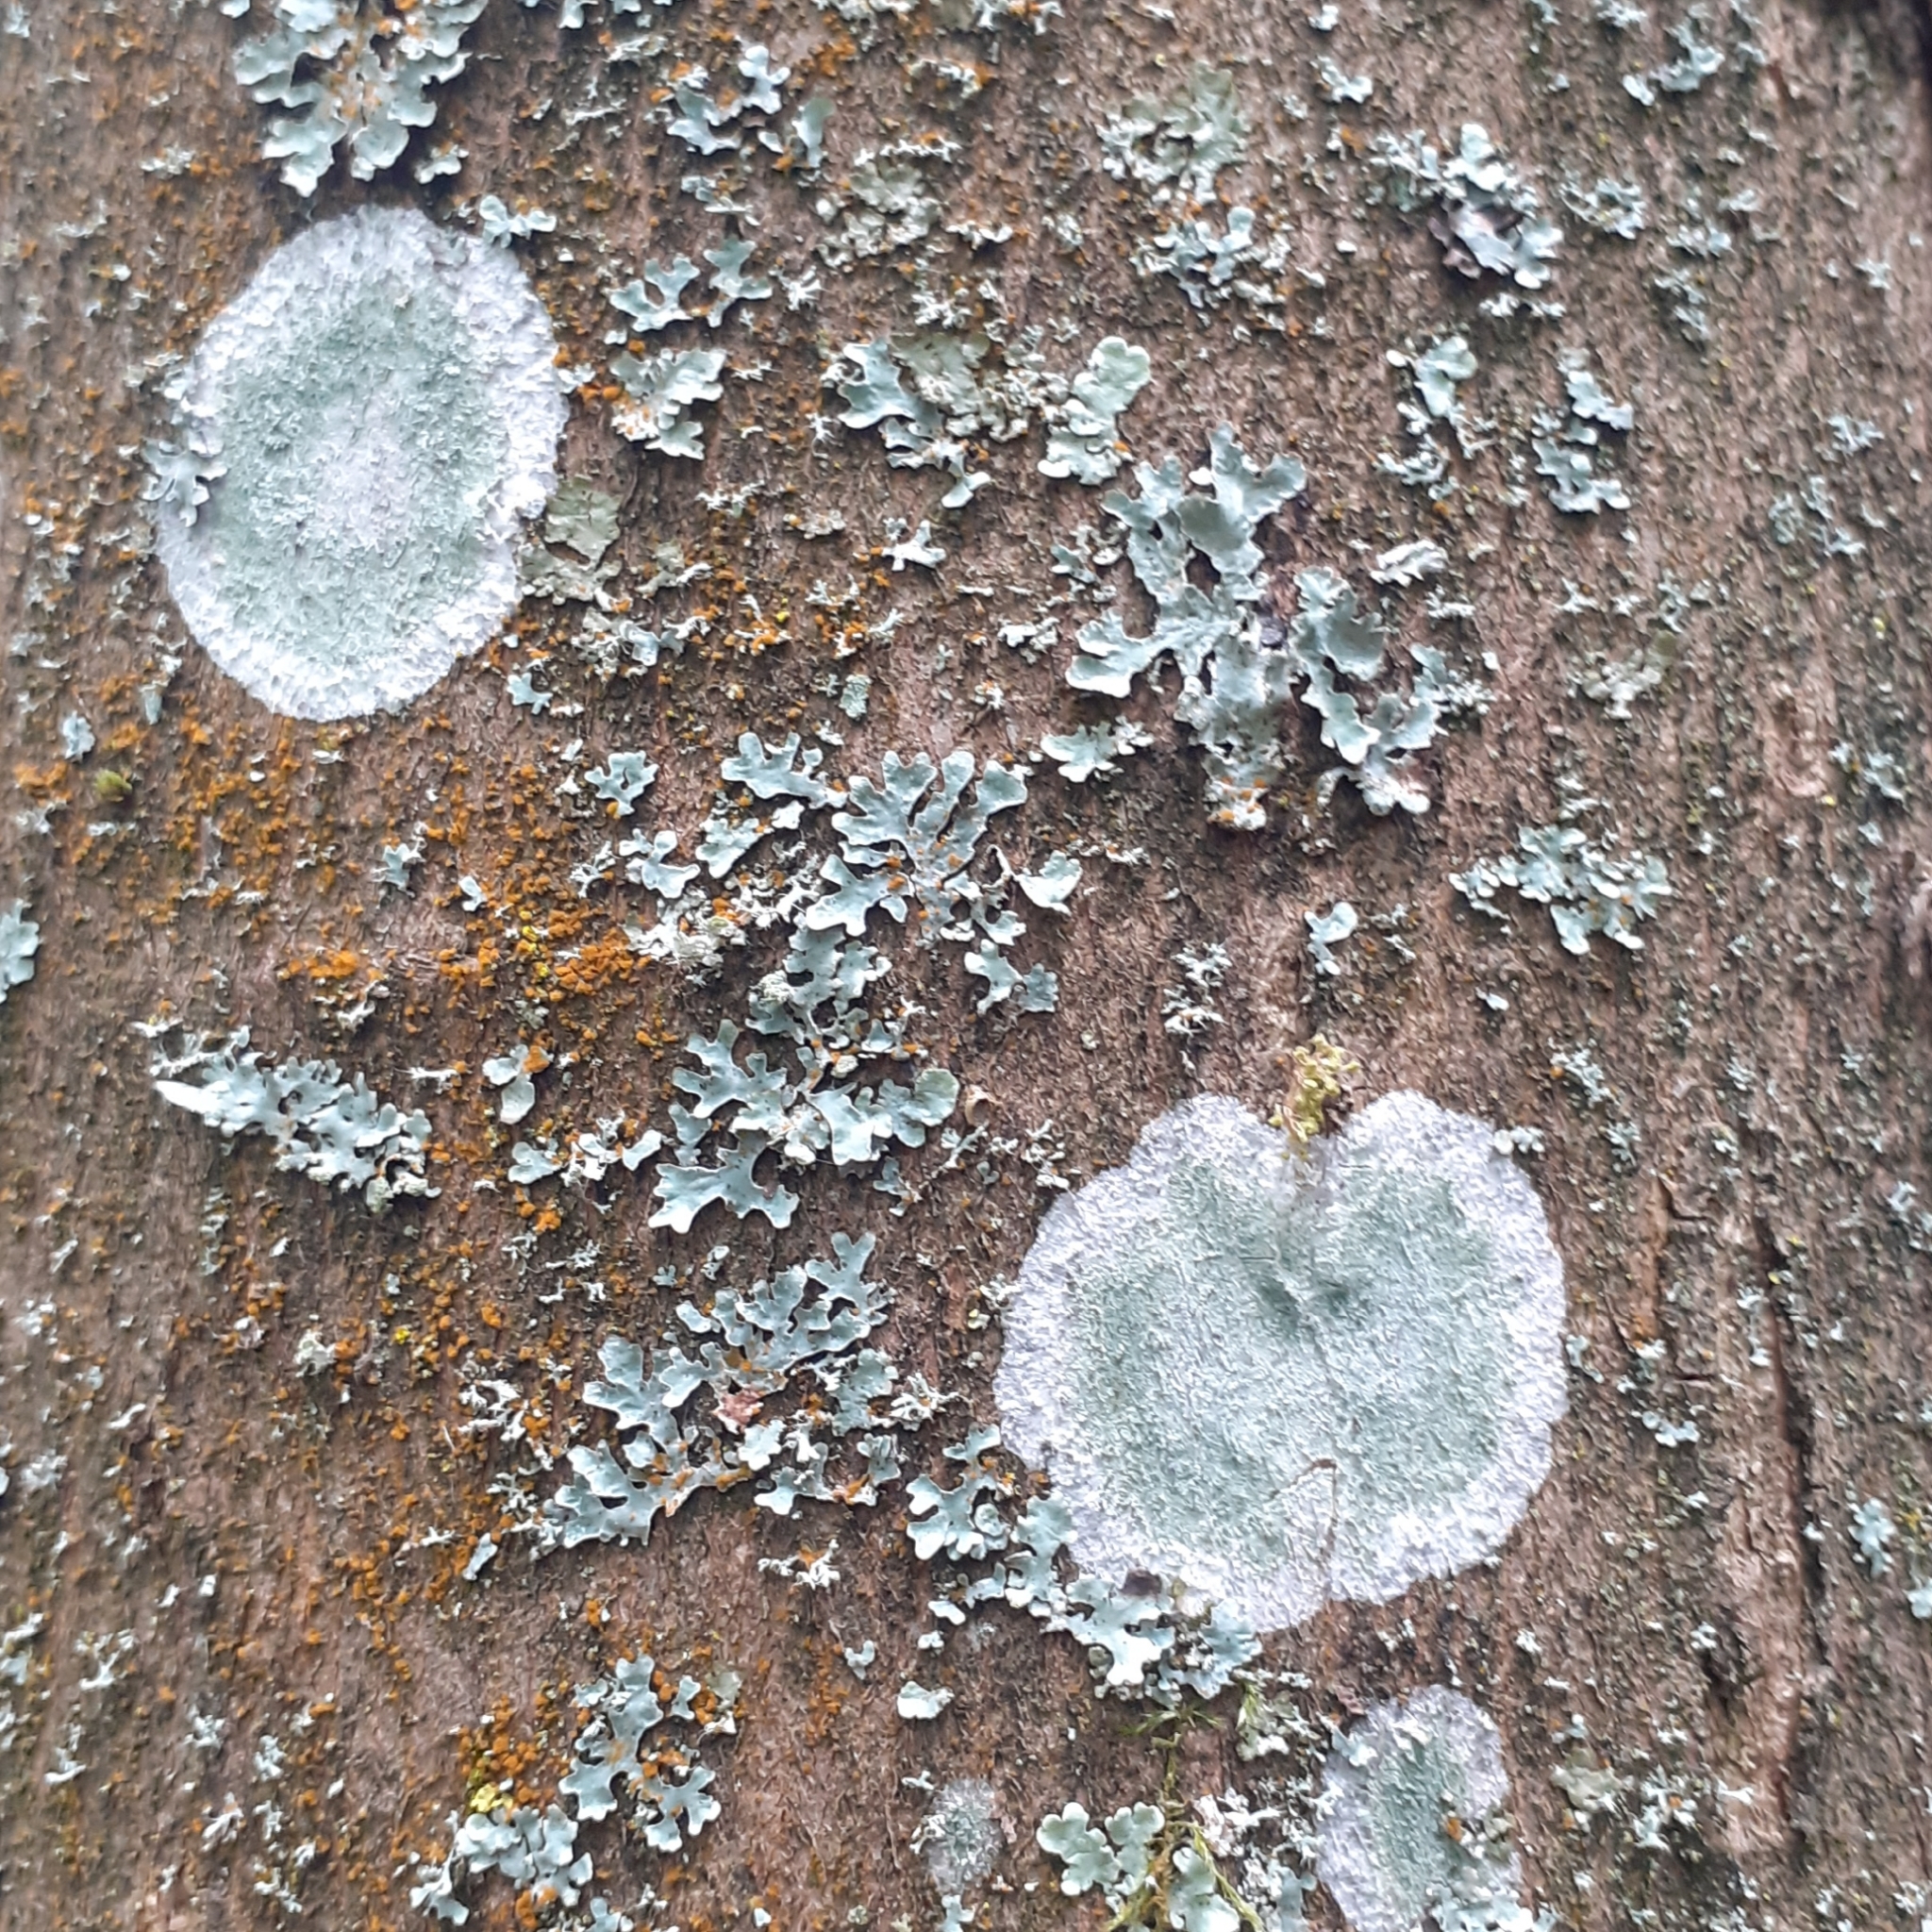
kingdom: Fungi
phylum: Ascomycota
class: Lecanoromycetes
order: Ostropales
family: Phlyctidaceae
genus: Phlyctis
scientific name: Phlyctis argena
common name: Whitewash lichen
